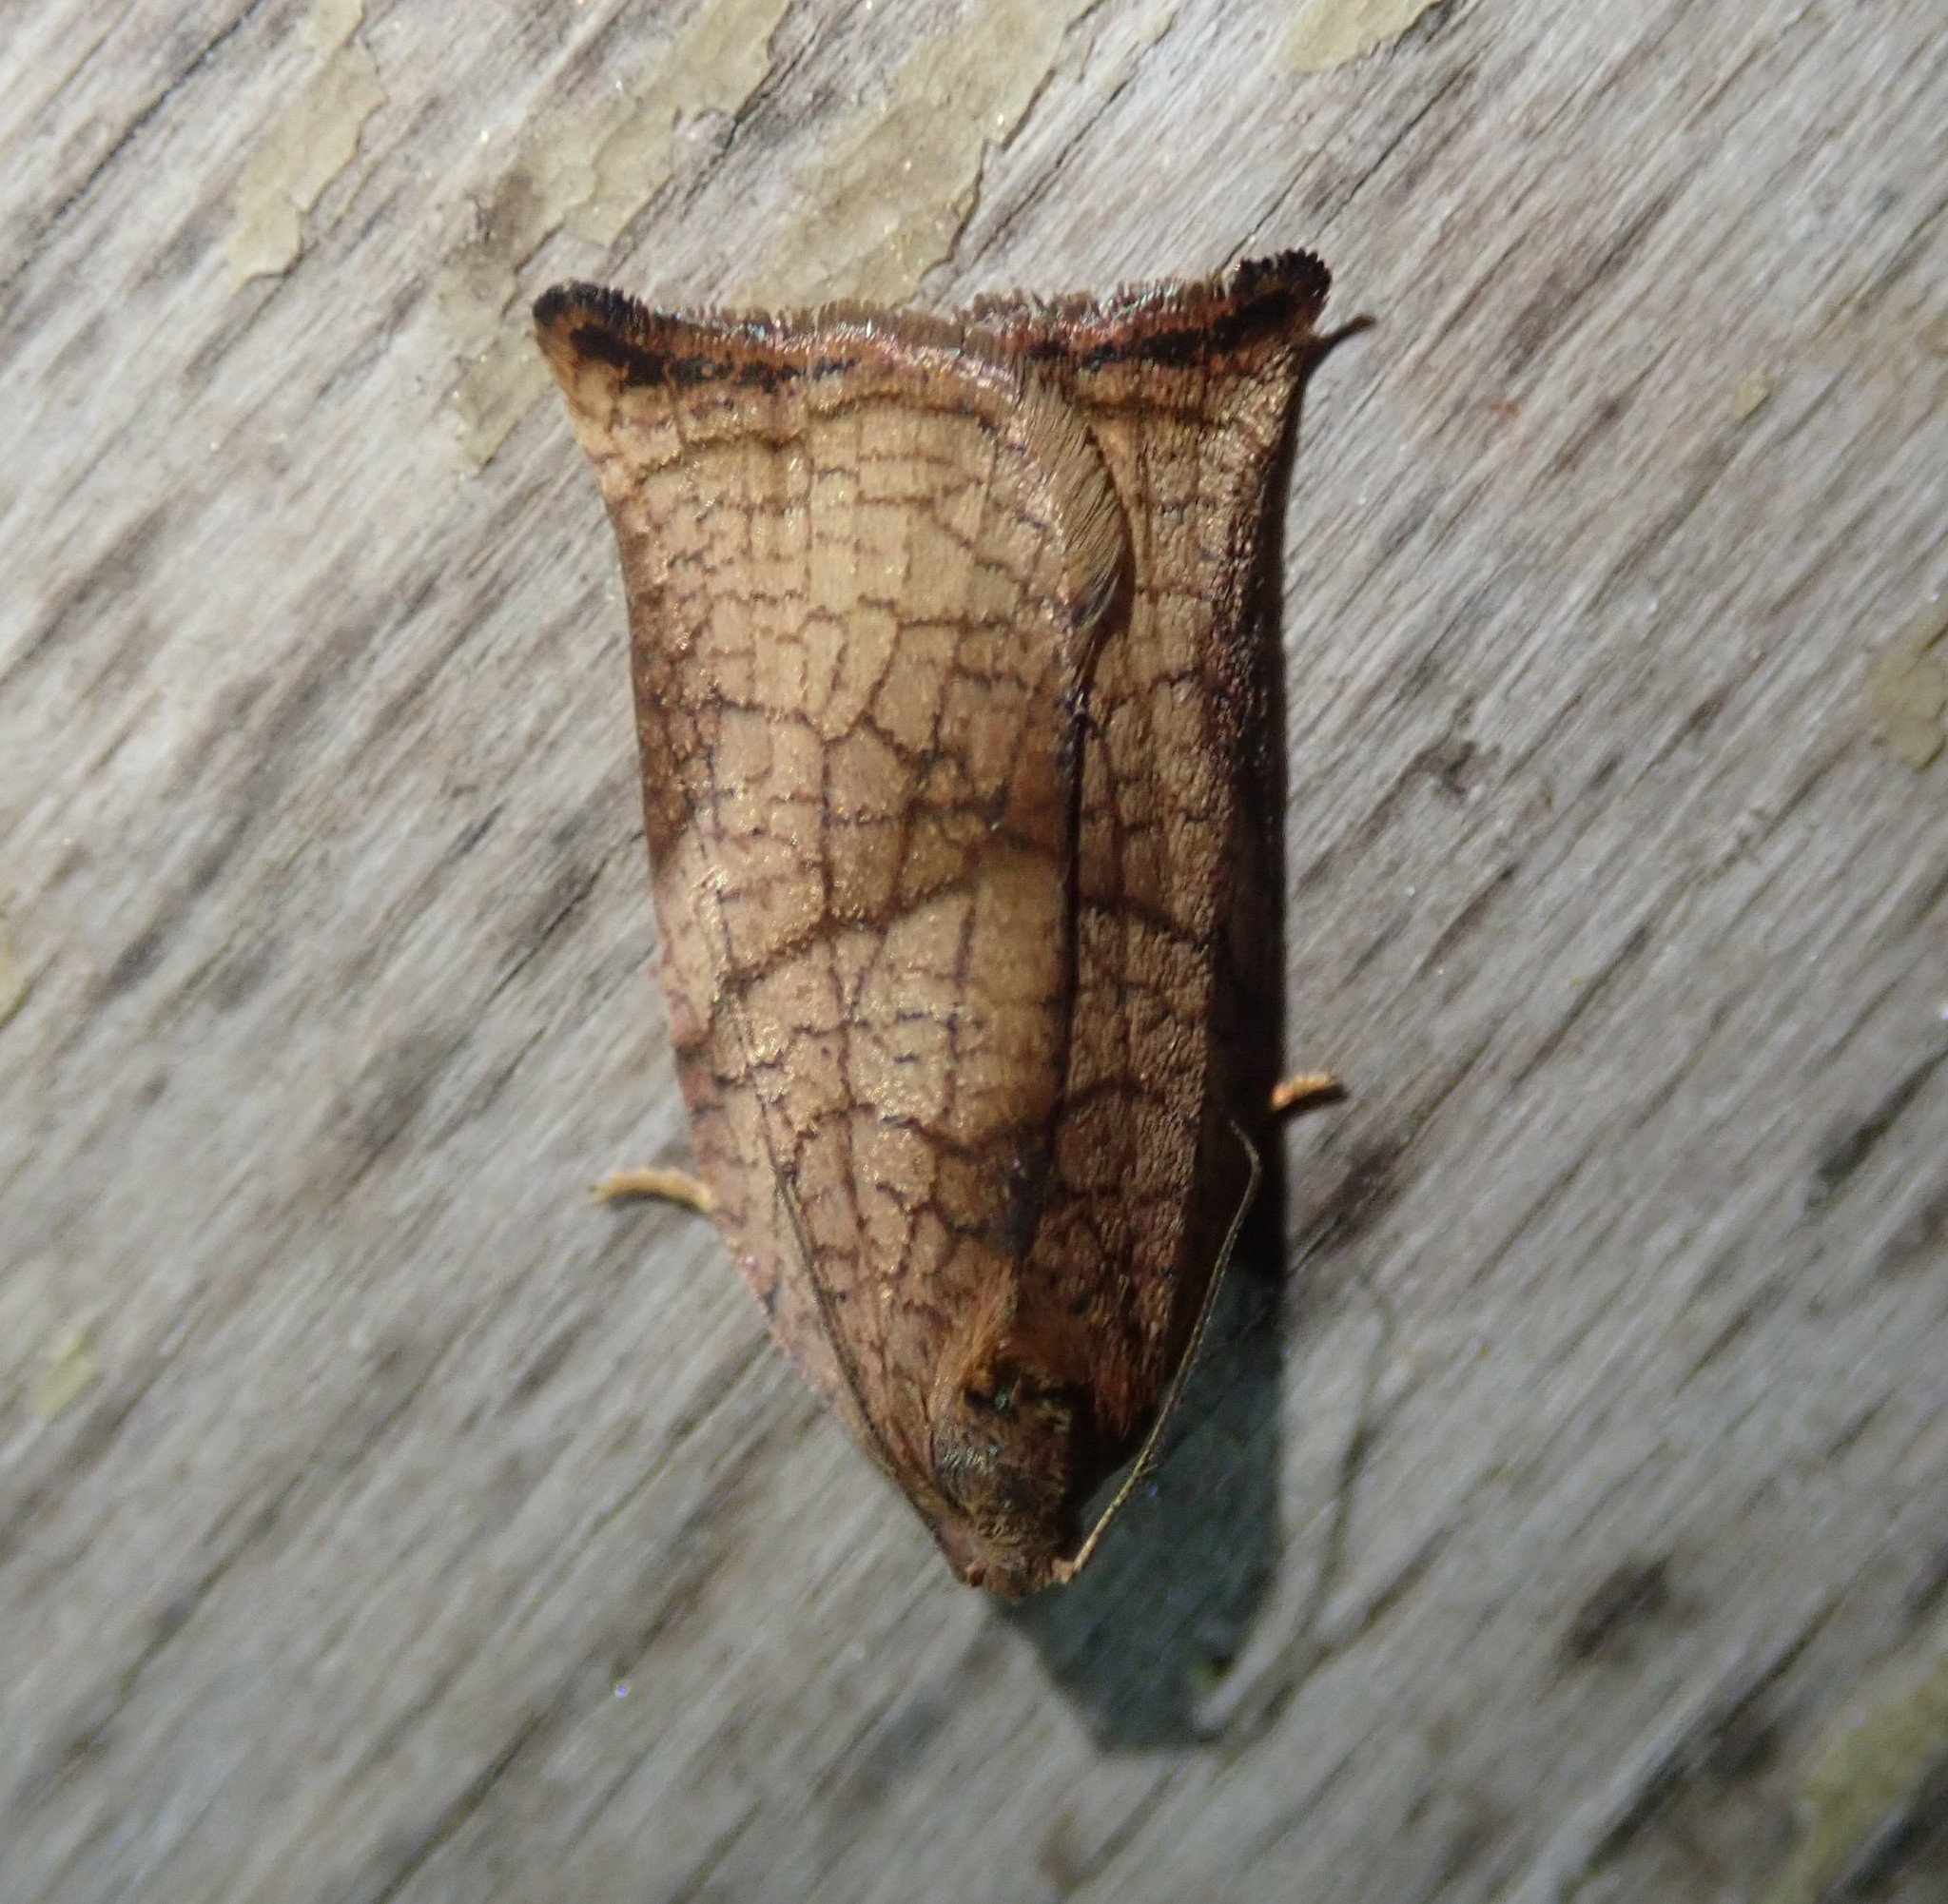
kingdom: Animalia
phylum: Arthropoda
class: Insecta
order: Lepidoptera
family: Tortricidae
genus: Archips
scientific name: Archips podana
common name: Large fruit-tree tortrix
